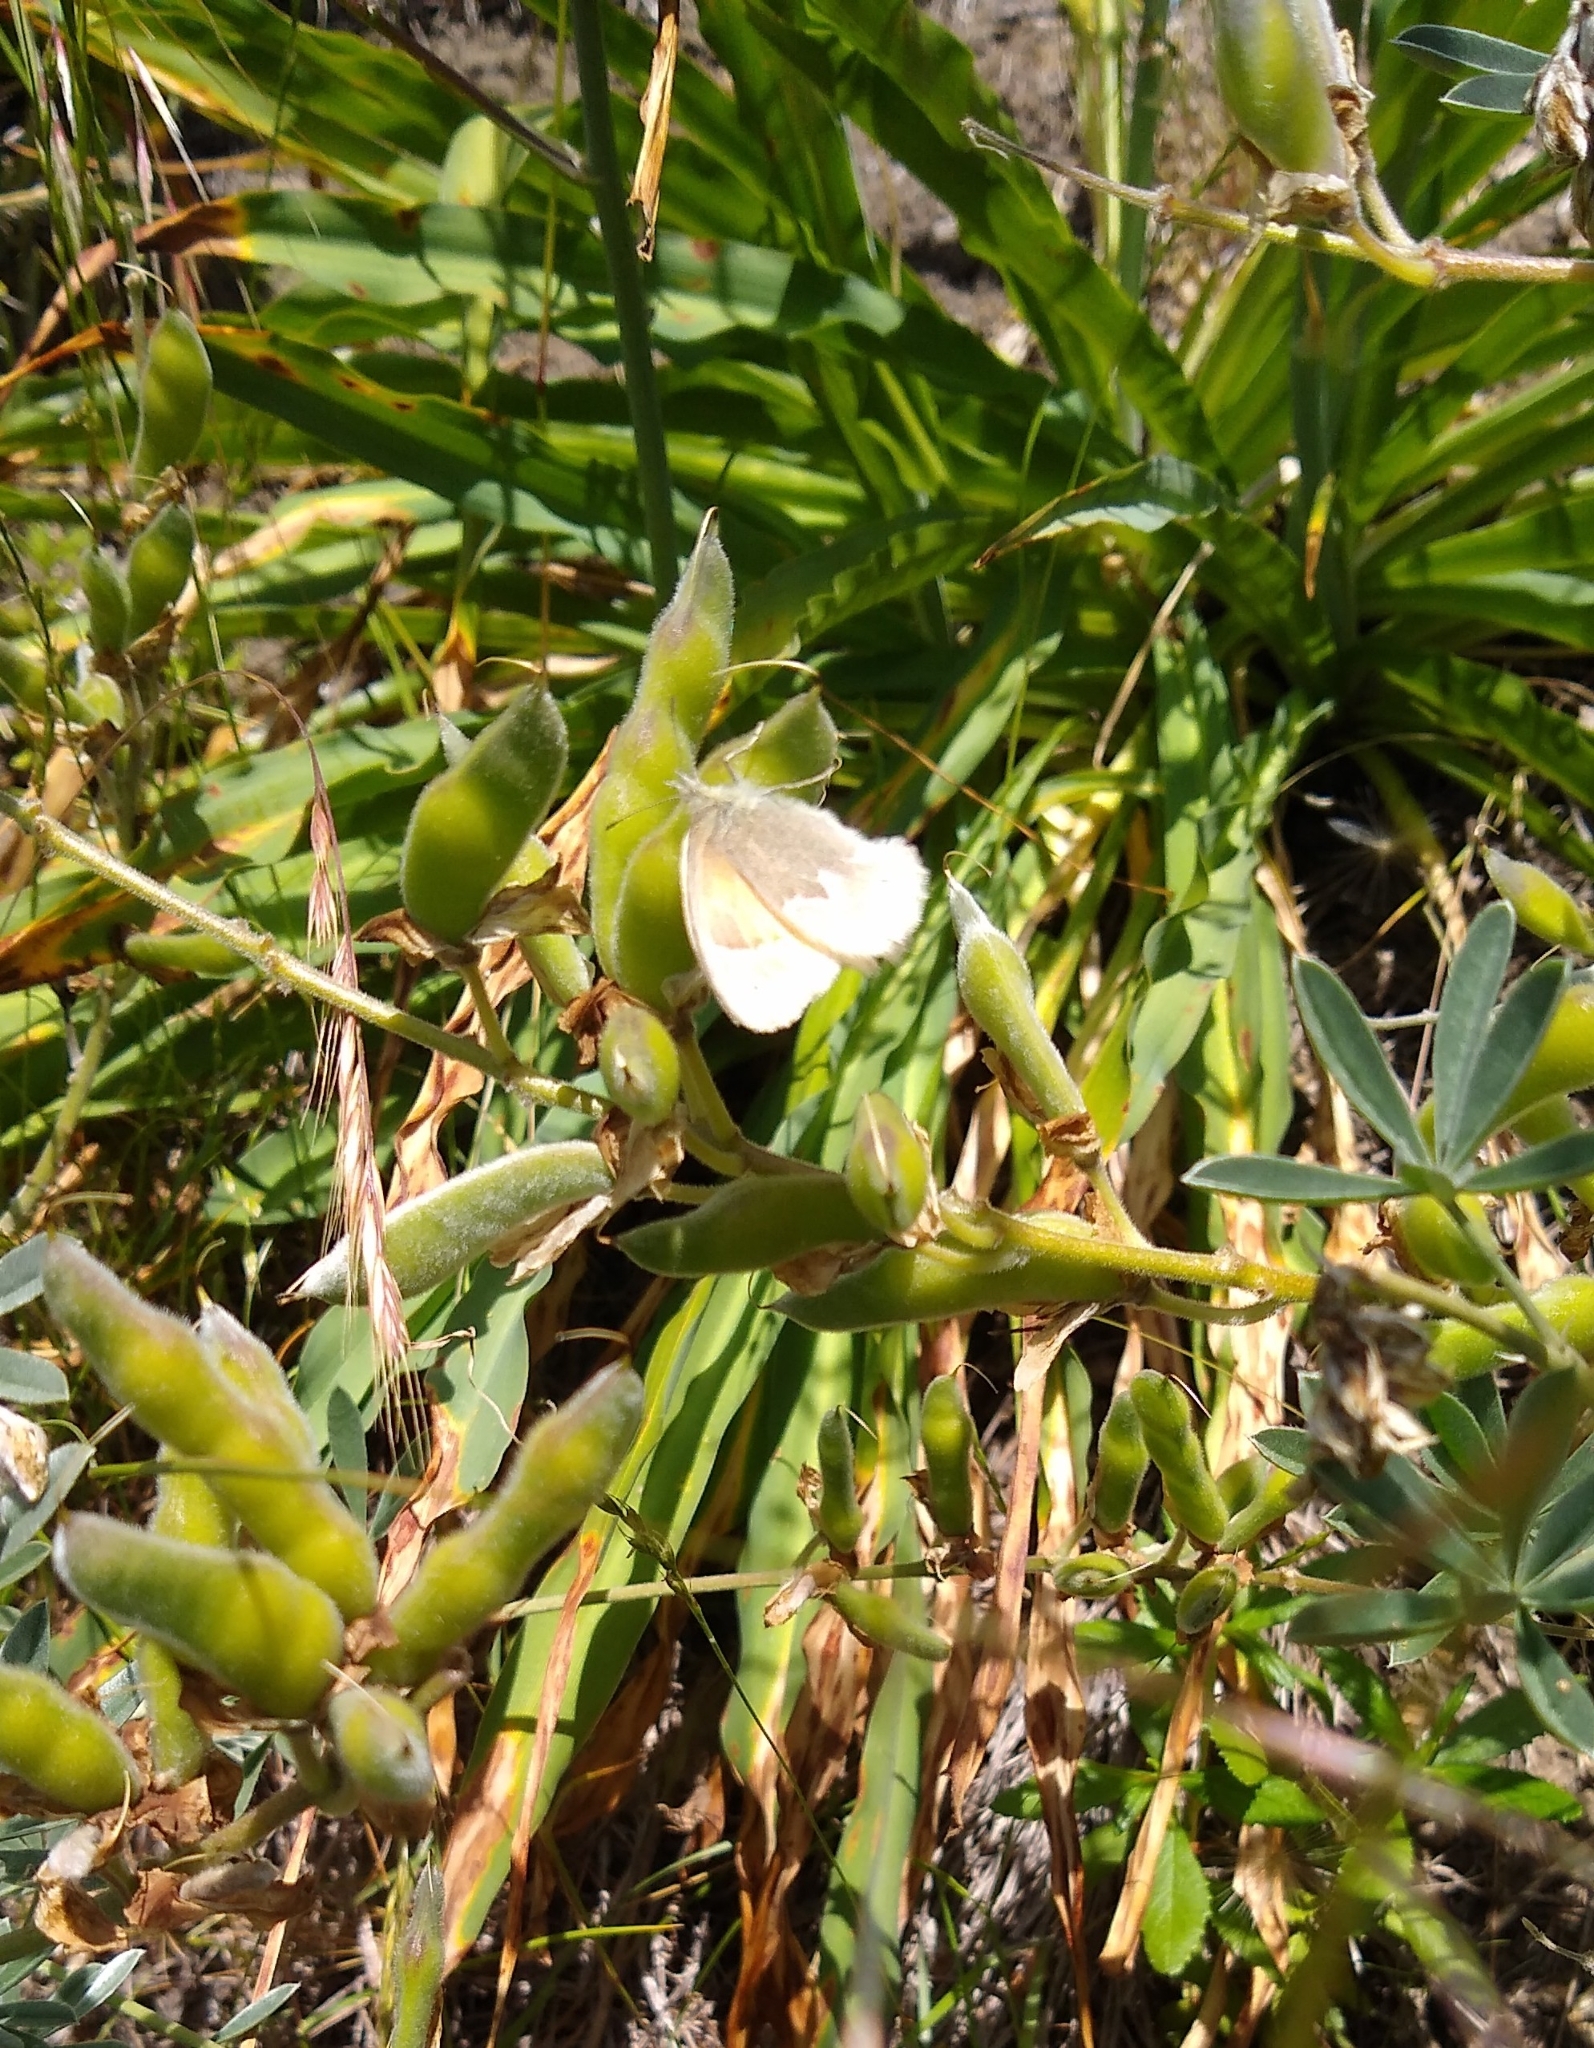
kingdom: Animalia
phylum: Arthropoda
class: Insecta
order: Lepidoptera
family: Nymphalidae
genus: Coenonympha
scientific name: Coenonympha california
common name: Common ringlet
